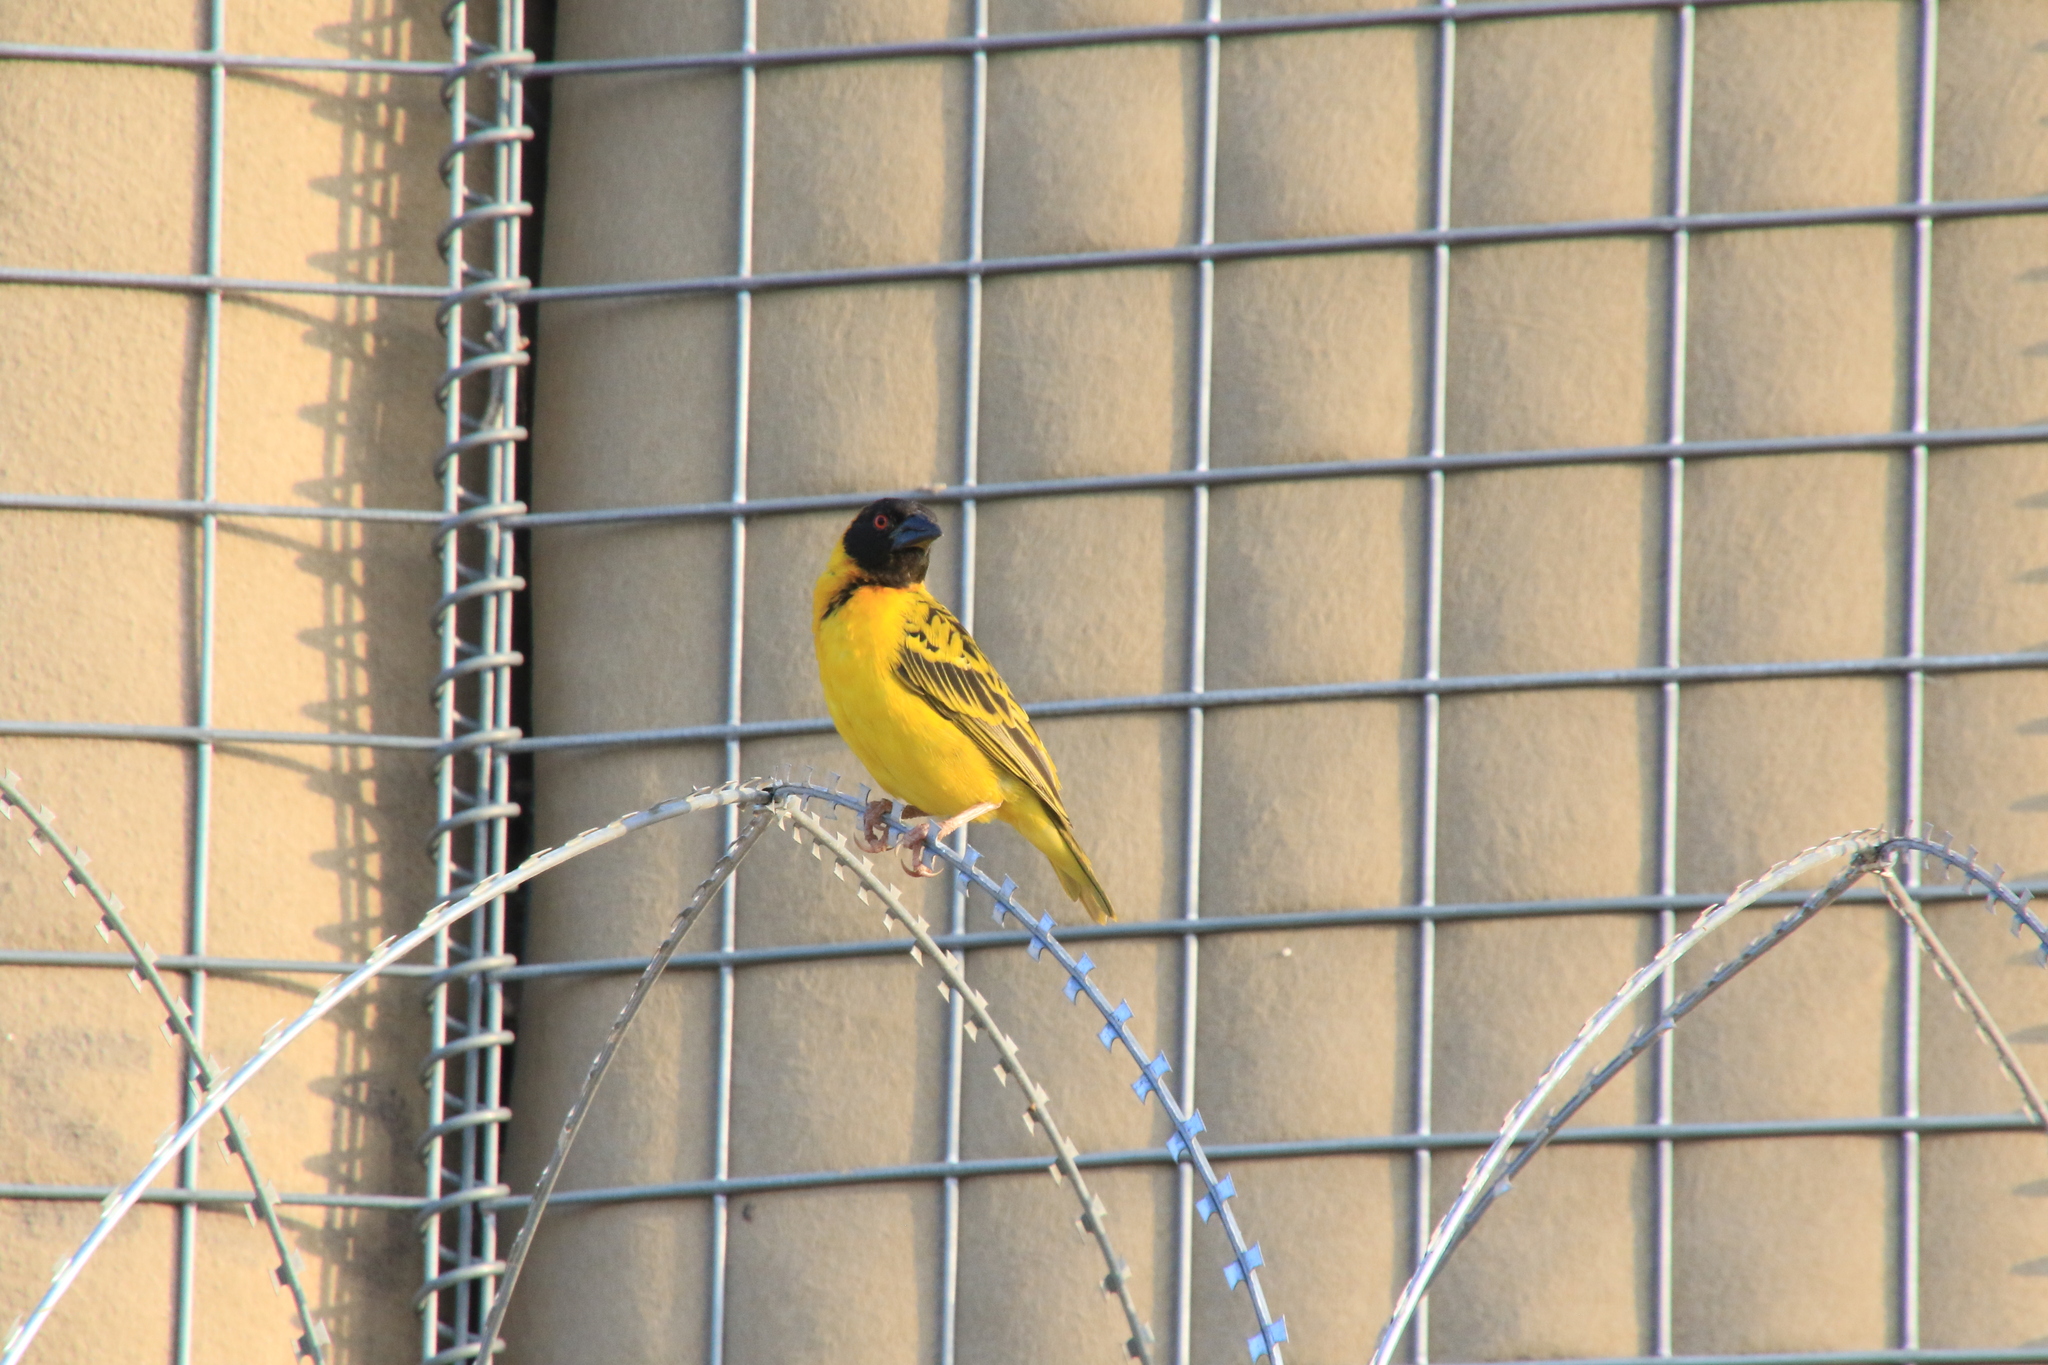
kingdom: Animalia
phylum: Chordata
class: Aves
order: Passeriformes
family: Ploceidae
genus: Ploceus
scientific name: Ploceus cucullatus
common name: Village weaver
